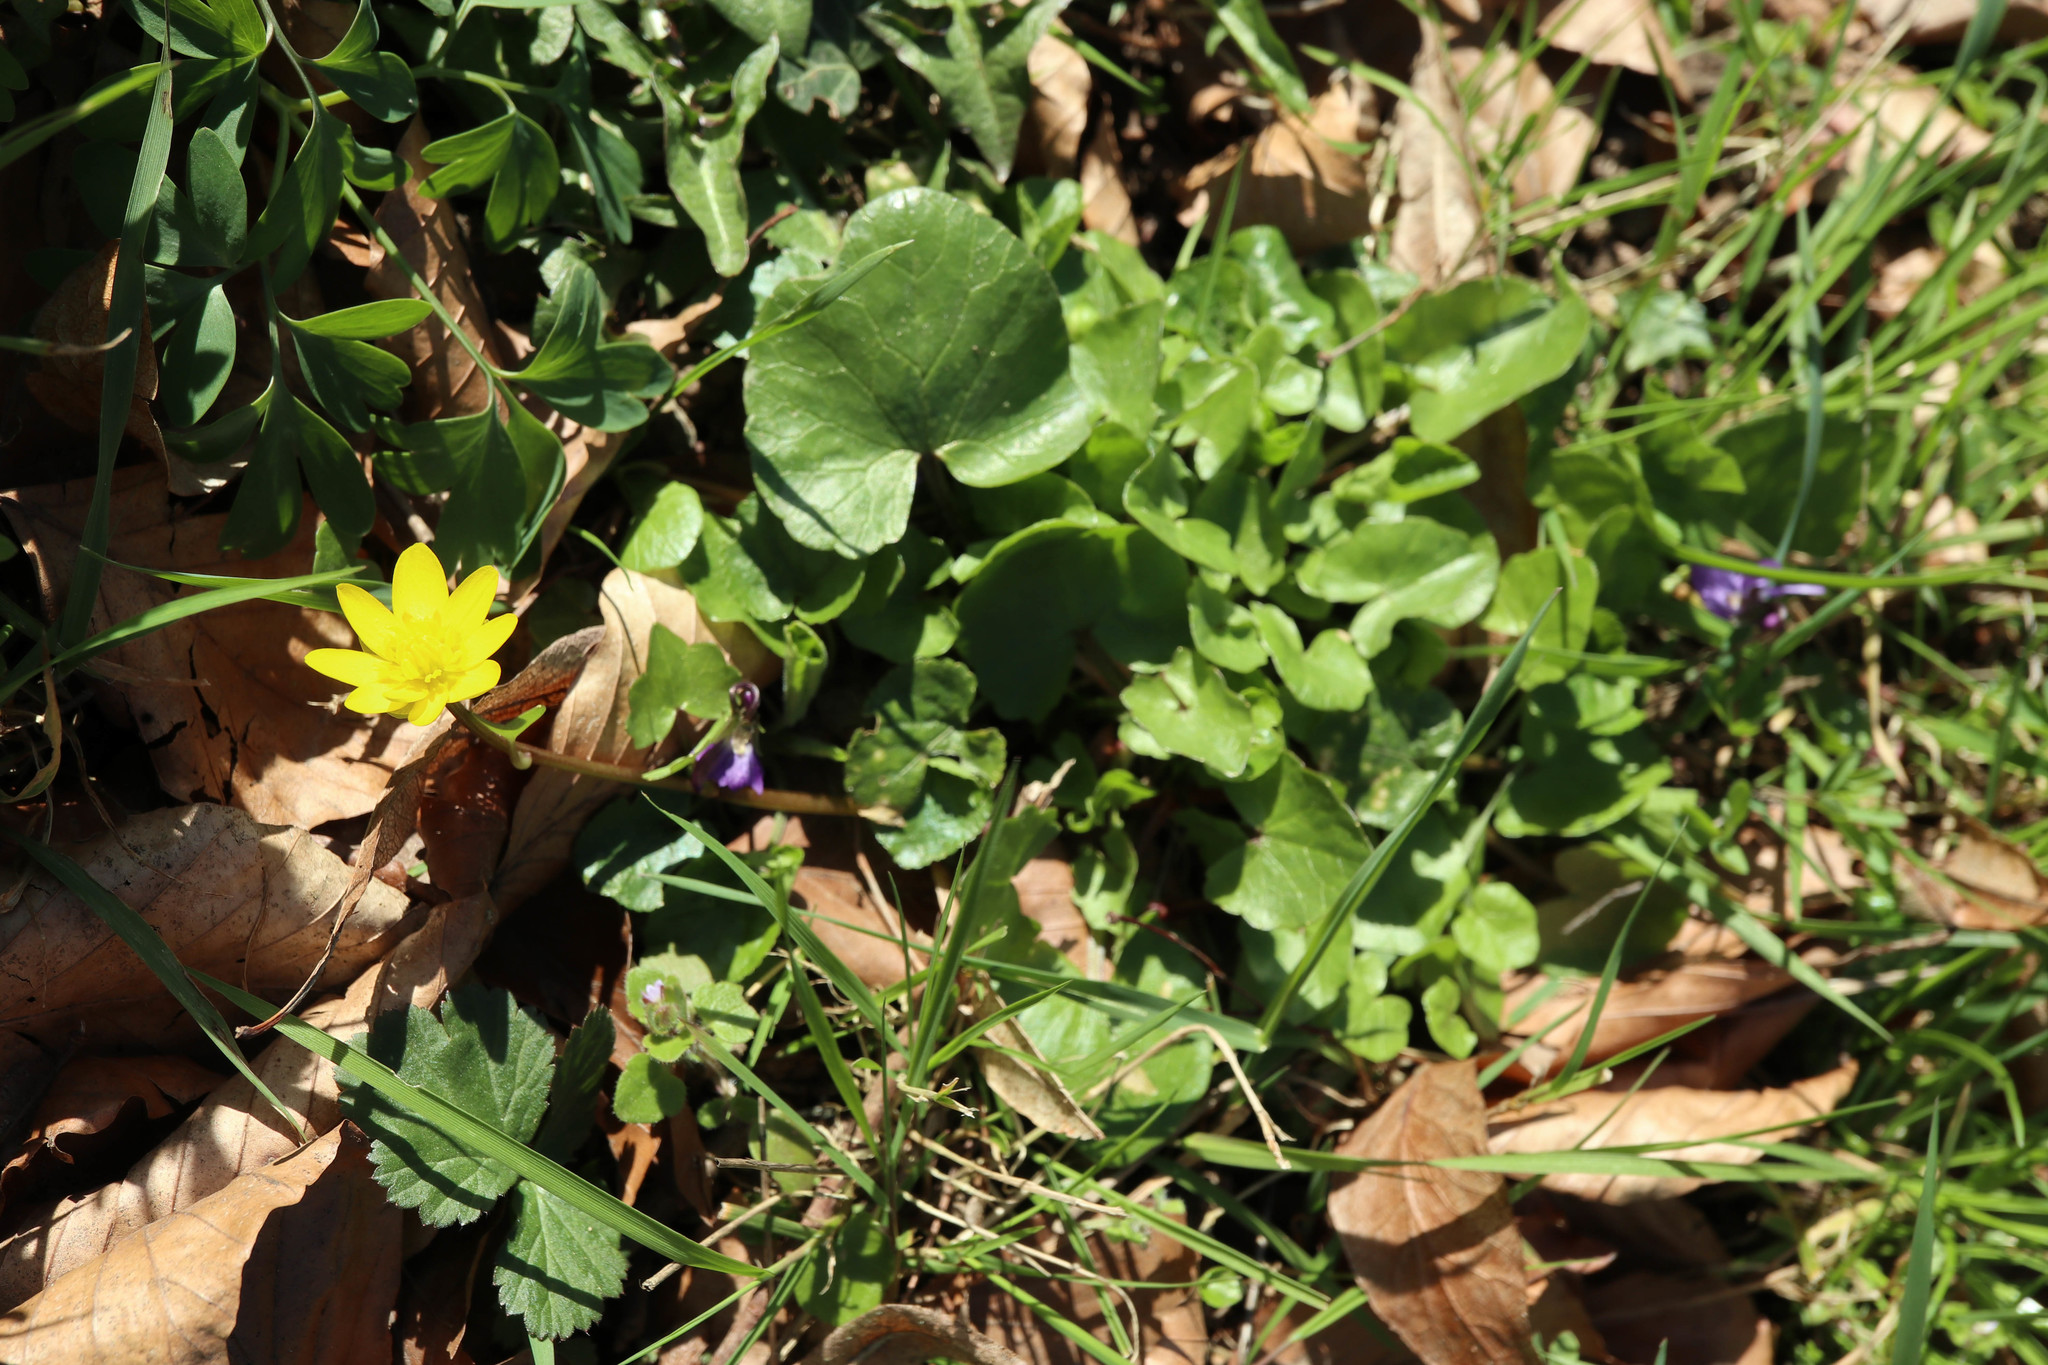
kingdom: Plantae
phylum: Tracheophyta
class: Magnoliopsida
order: Ranunculales
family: Ranunculaceae
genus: Ficaria
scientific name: Ficaria verna
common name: Lesser celandine
